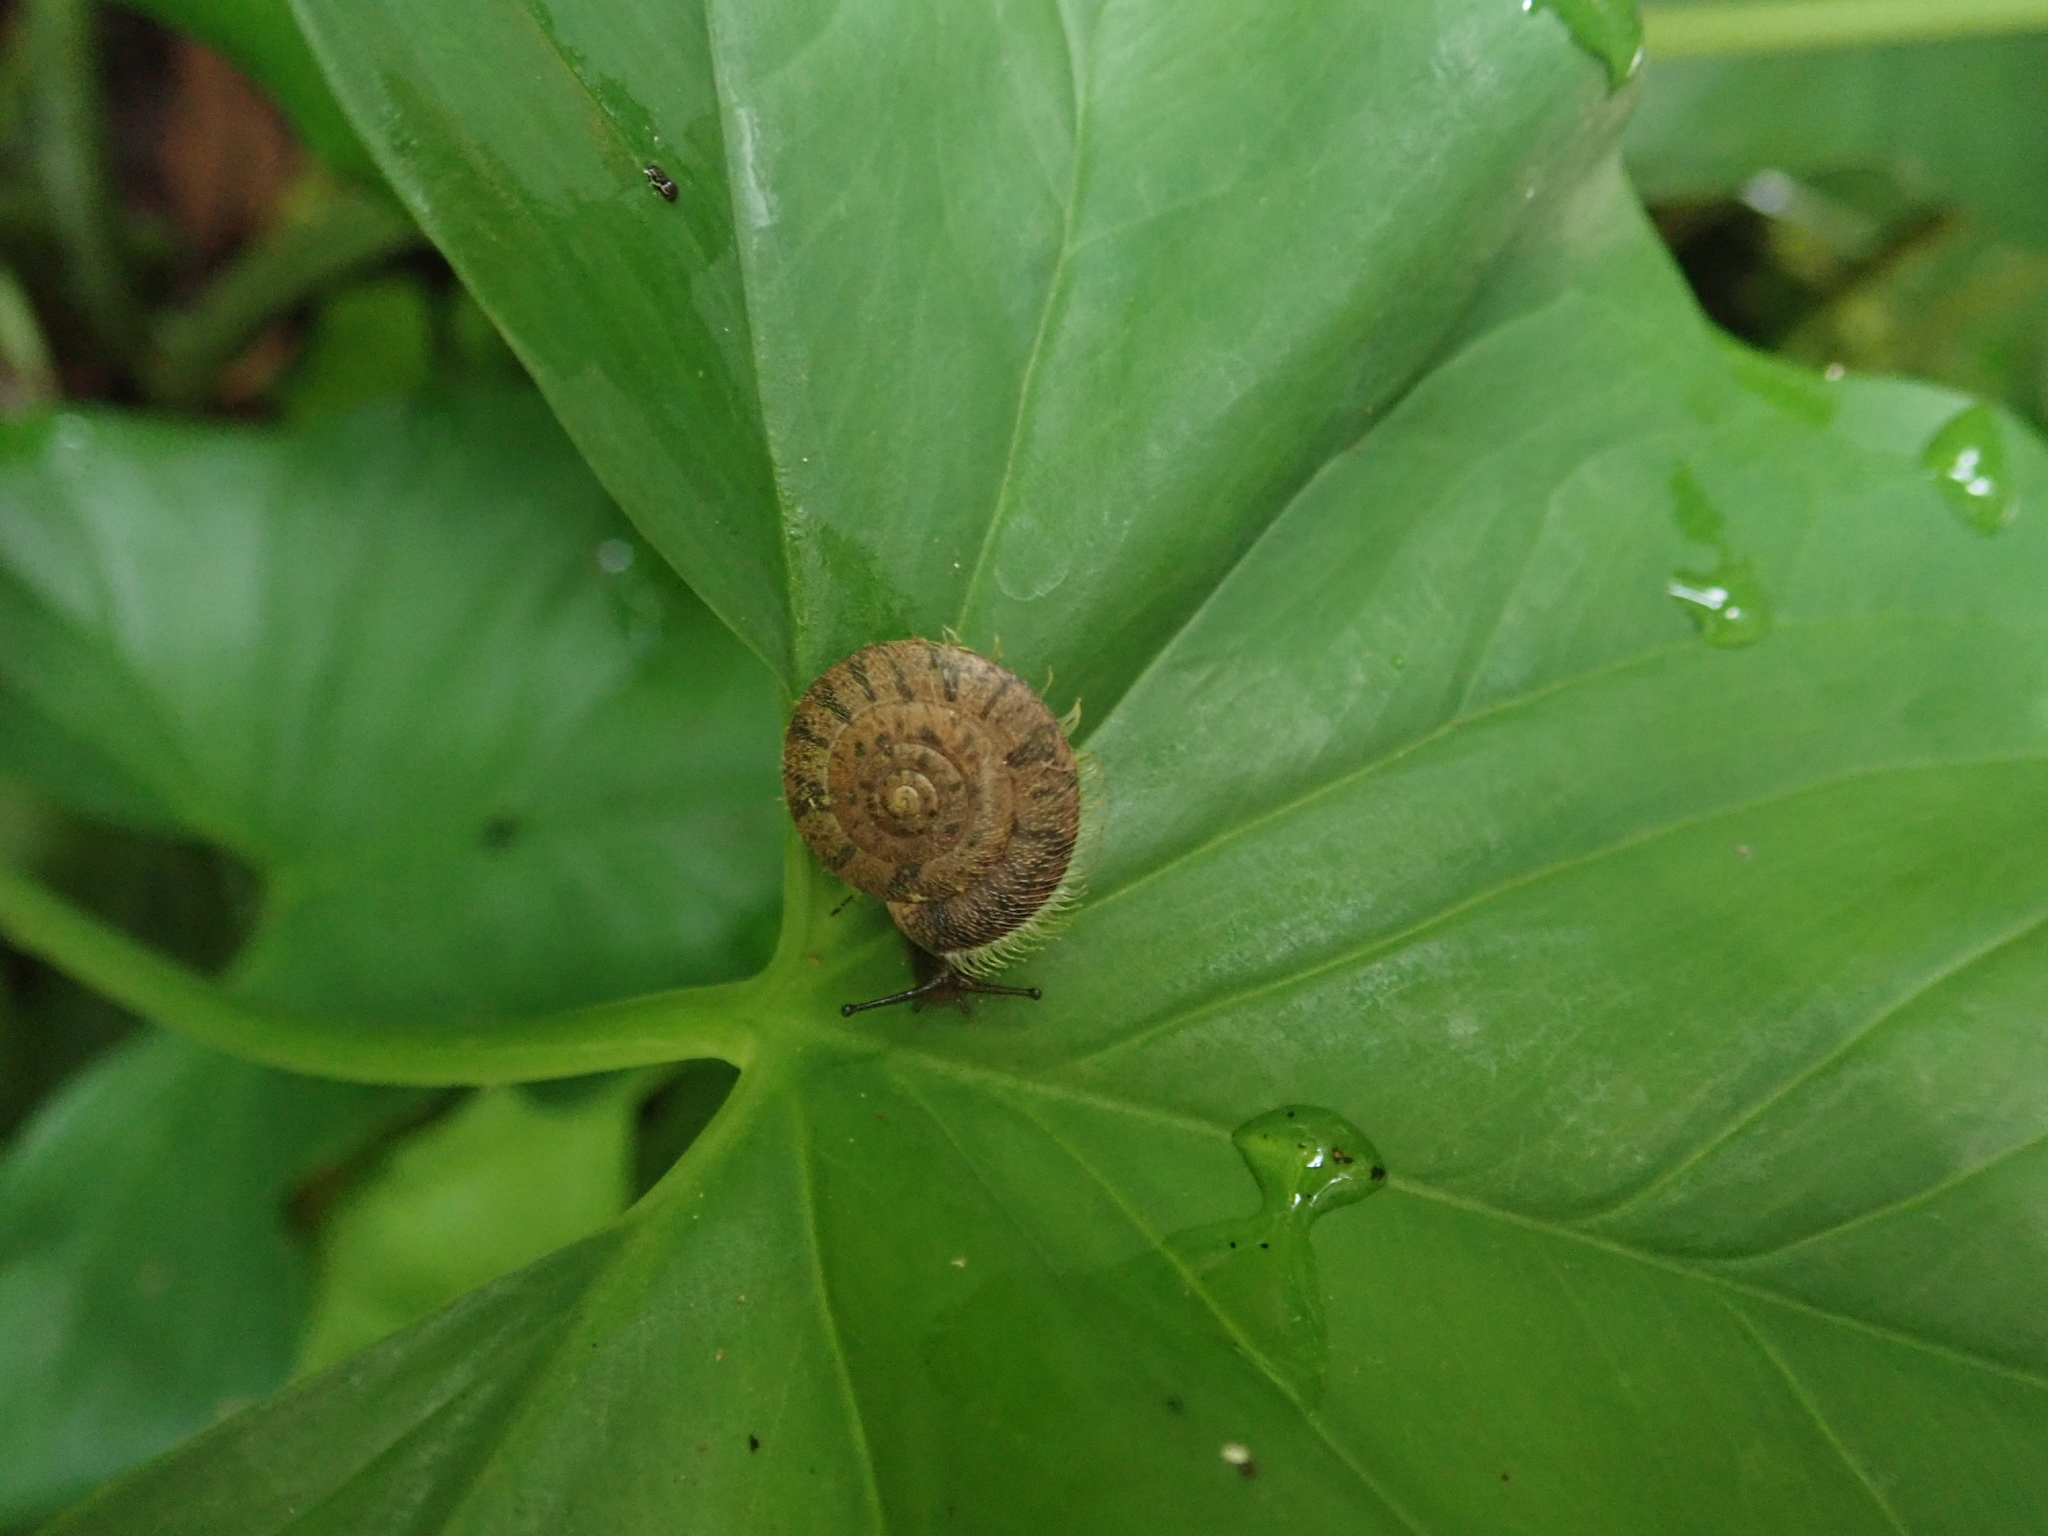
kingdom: Animalia
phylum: Mollusca
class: Gastropoda
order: Stylommatophora
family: Camaenidae
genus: Plectotropis
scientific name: Plectotropis mackensii
